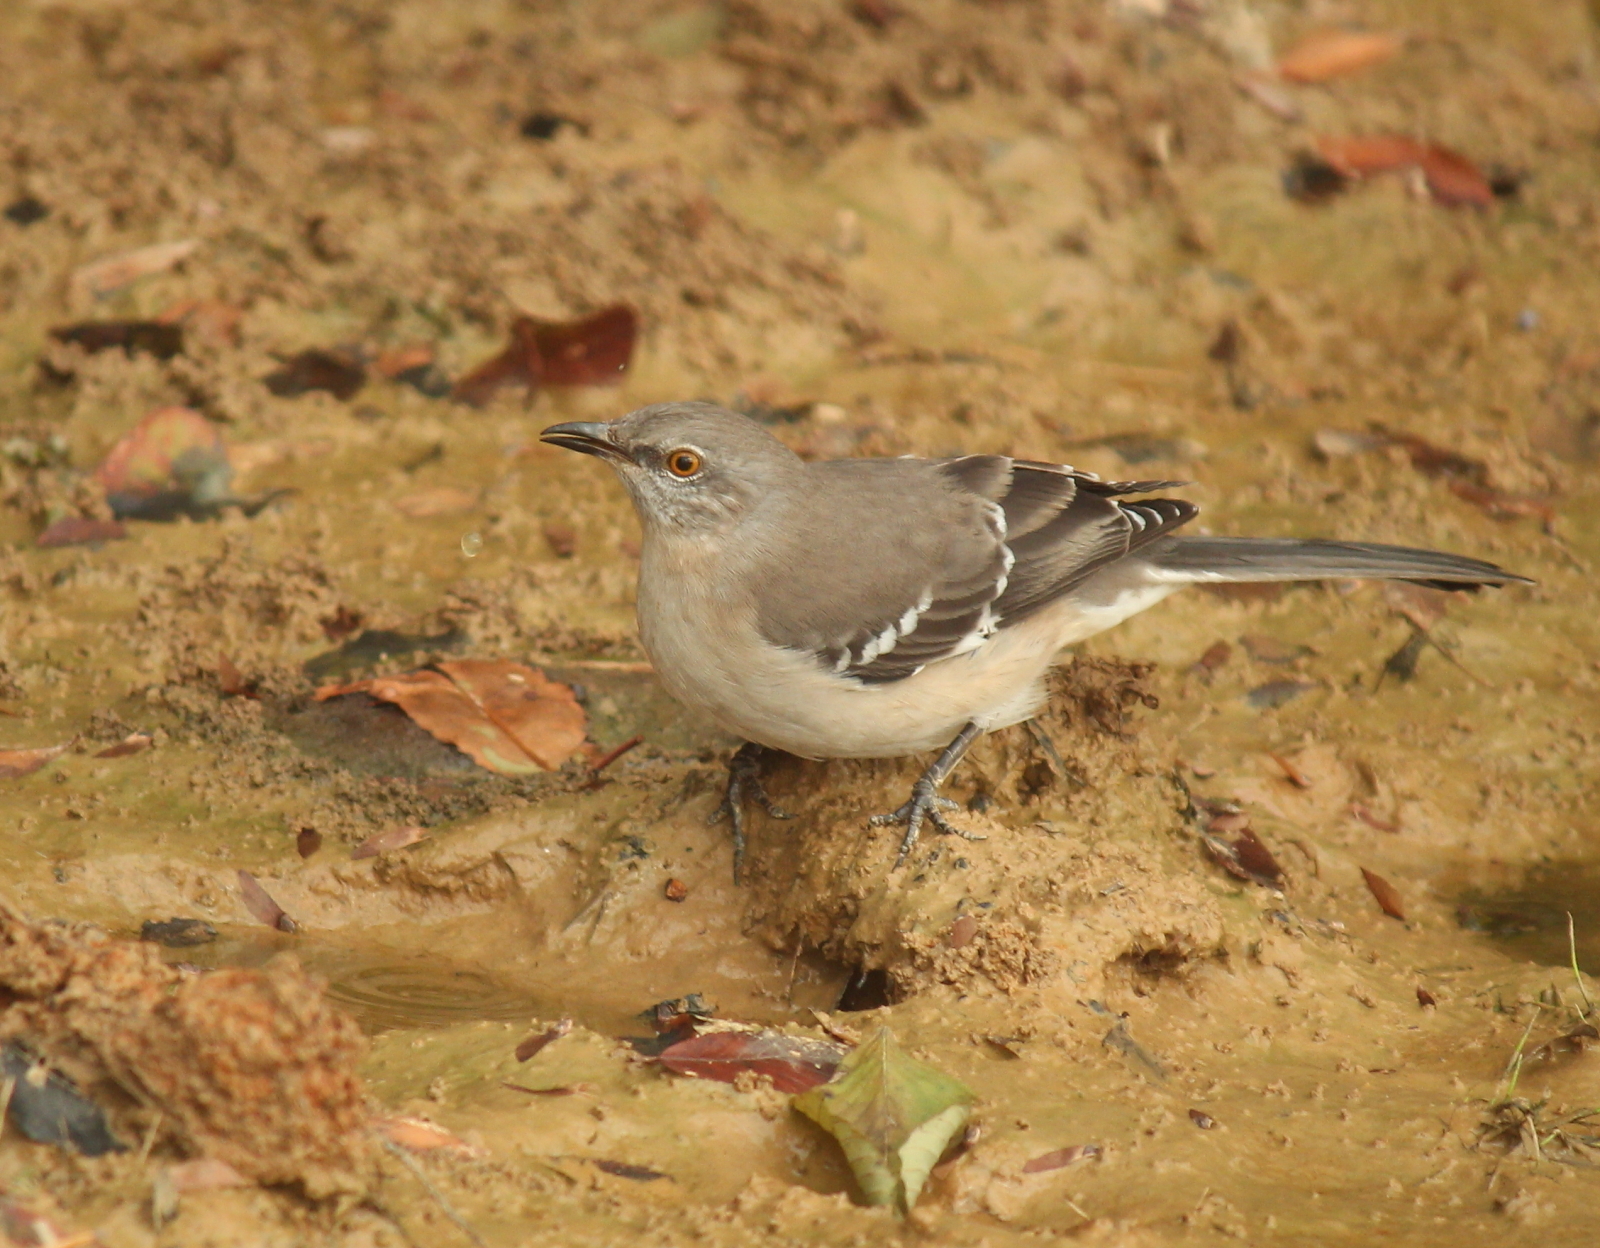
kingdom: Animalia
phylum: Chordata
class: Aves
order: Passeriformes
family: Mimidae
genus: Mimus
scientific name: Mimus polyglottos
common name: Northern mockingbird
